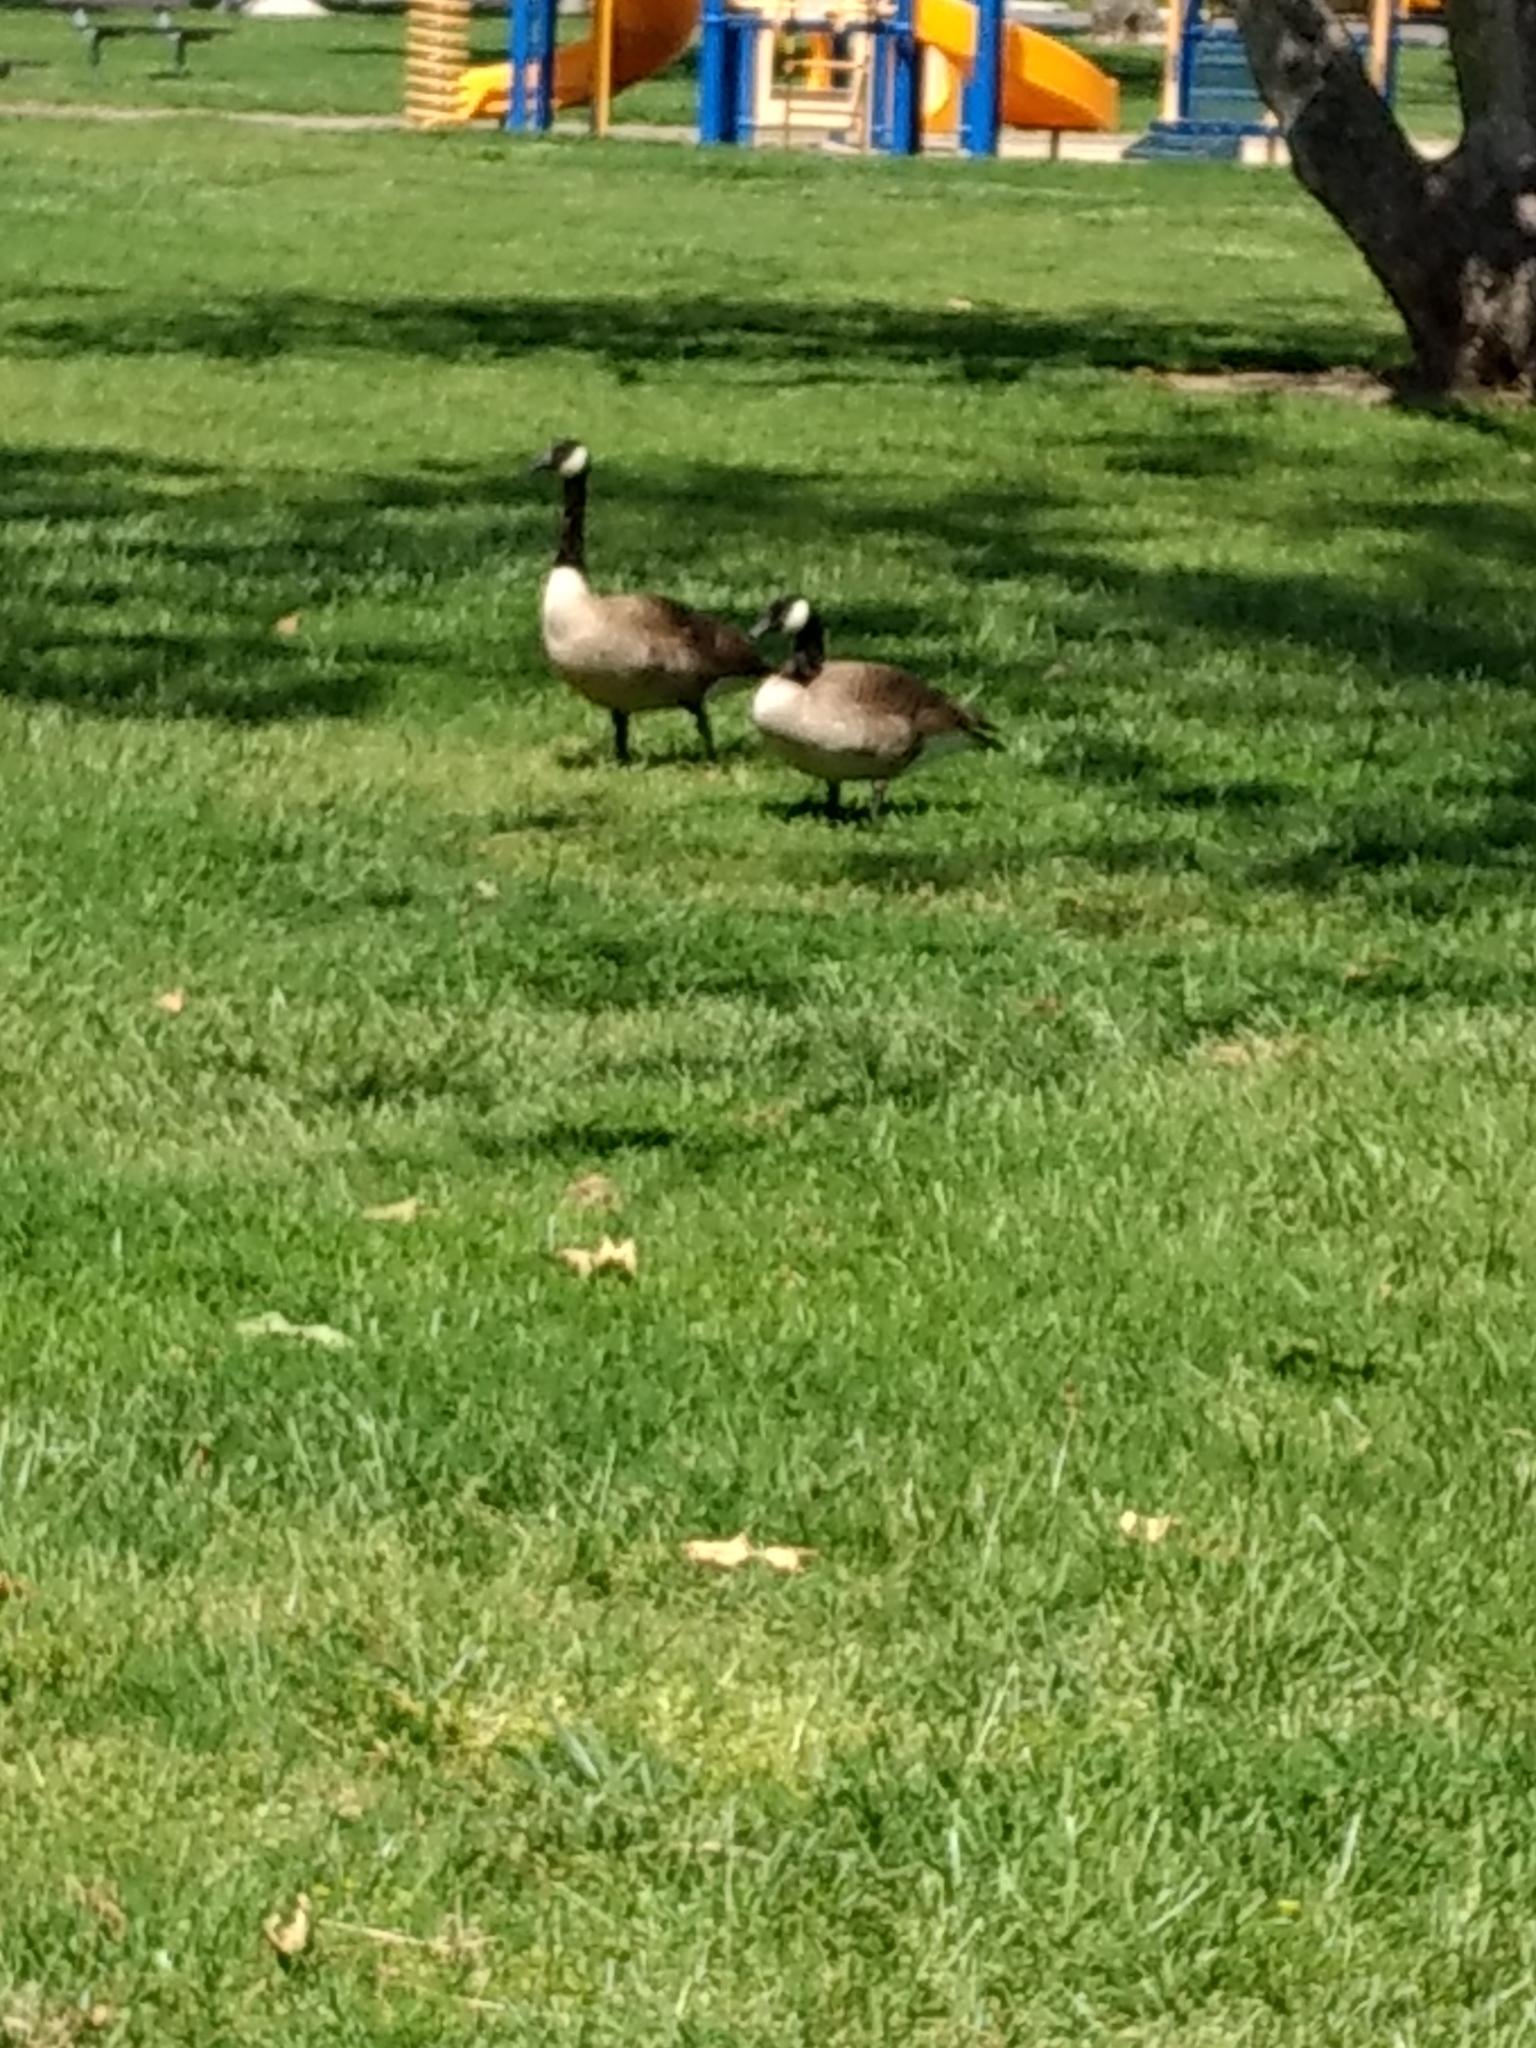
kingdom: Animalia
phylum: Chordata
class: Aves
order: Anseriformes
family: Anatidae
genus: Branta
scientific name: Branta canadensis
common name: Canada goose
